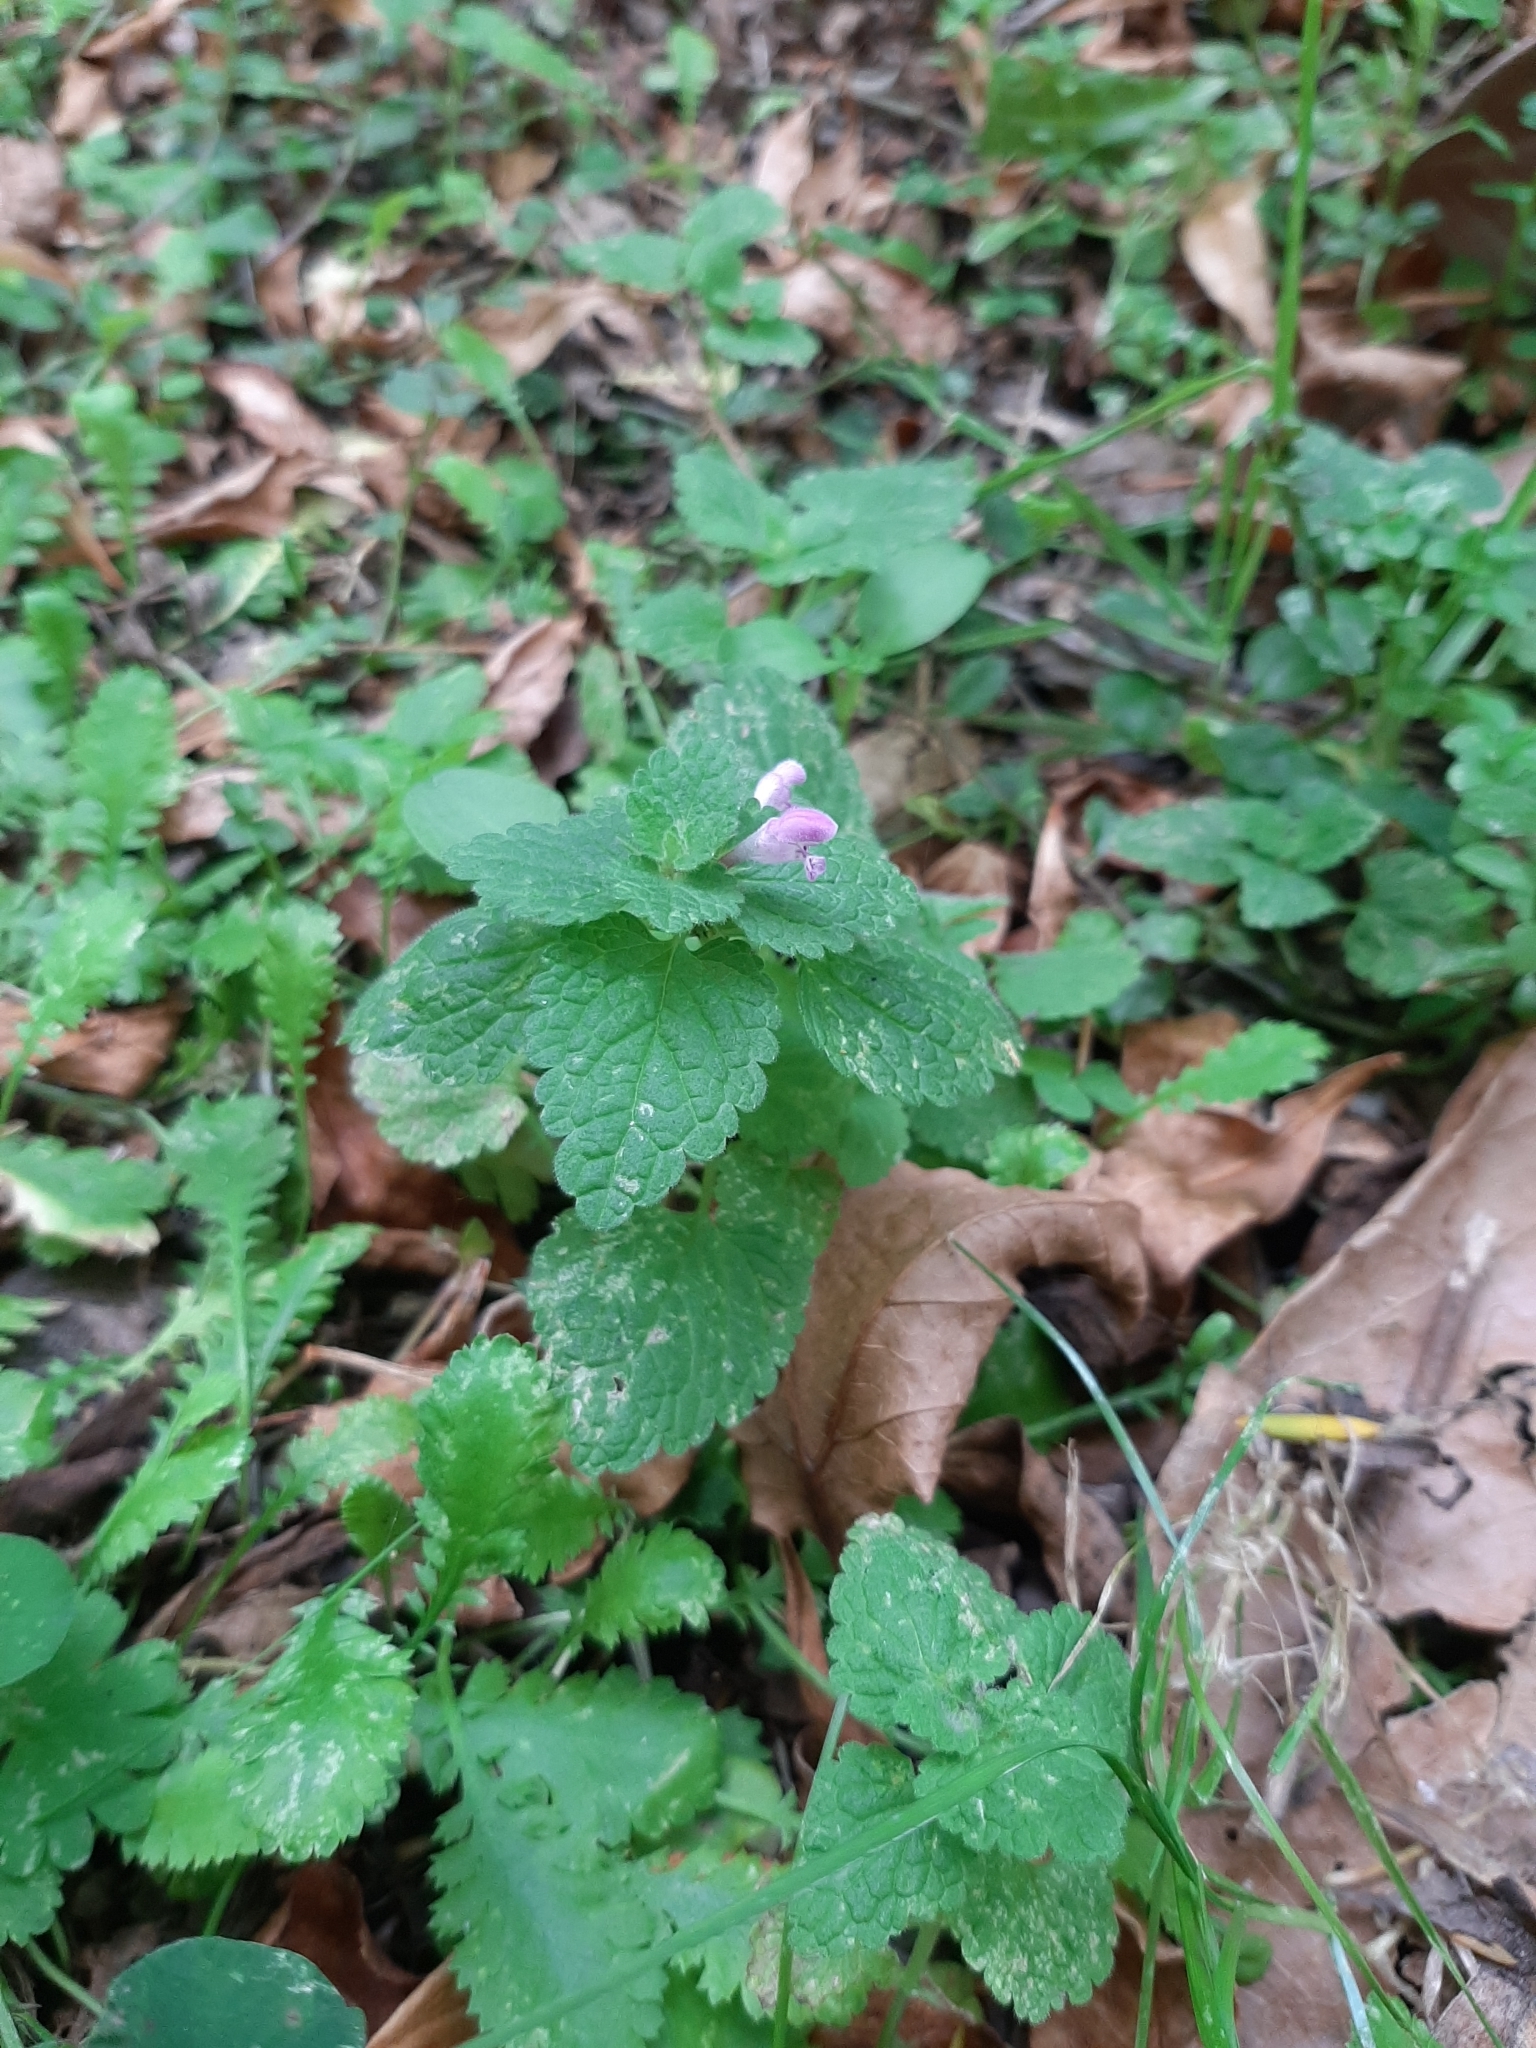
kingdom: Plantae
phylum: Tracheophyta
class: Magnoliopsida
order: Lamiales
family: Lamiaceae
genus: Lamium
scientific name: Lamium purpureum
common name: Red dead-nettle
